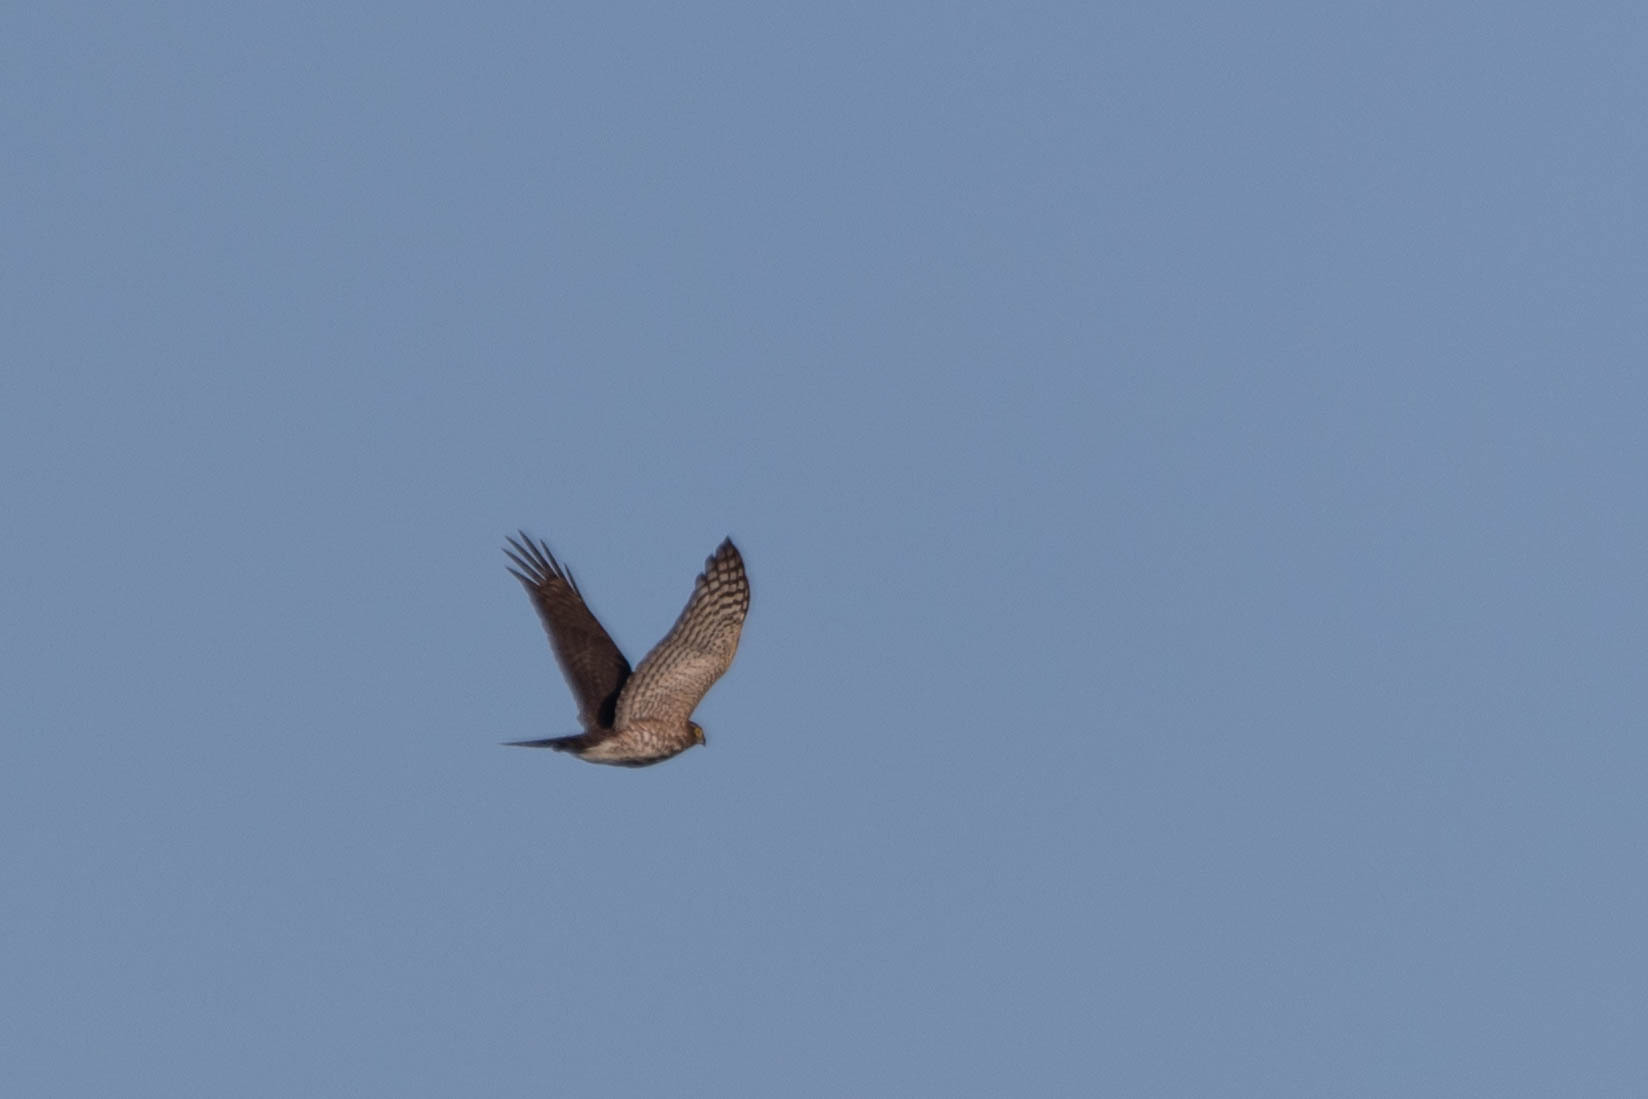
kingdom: Animalia
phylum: Chordata
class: Aves
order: Accipitriformes
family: Accipitridae
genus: Accipiter
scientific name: Accipiter striatus
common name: Sharp-shinned hawk
